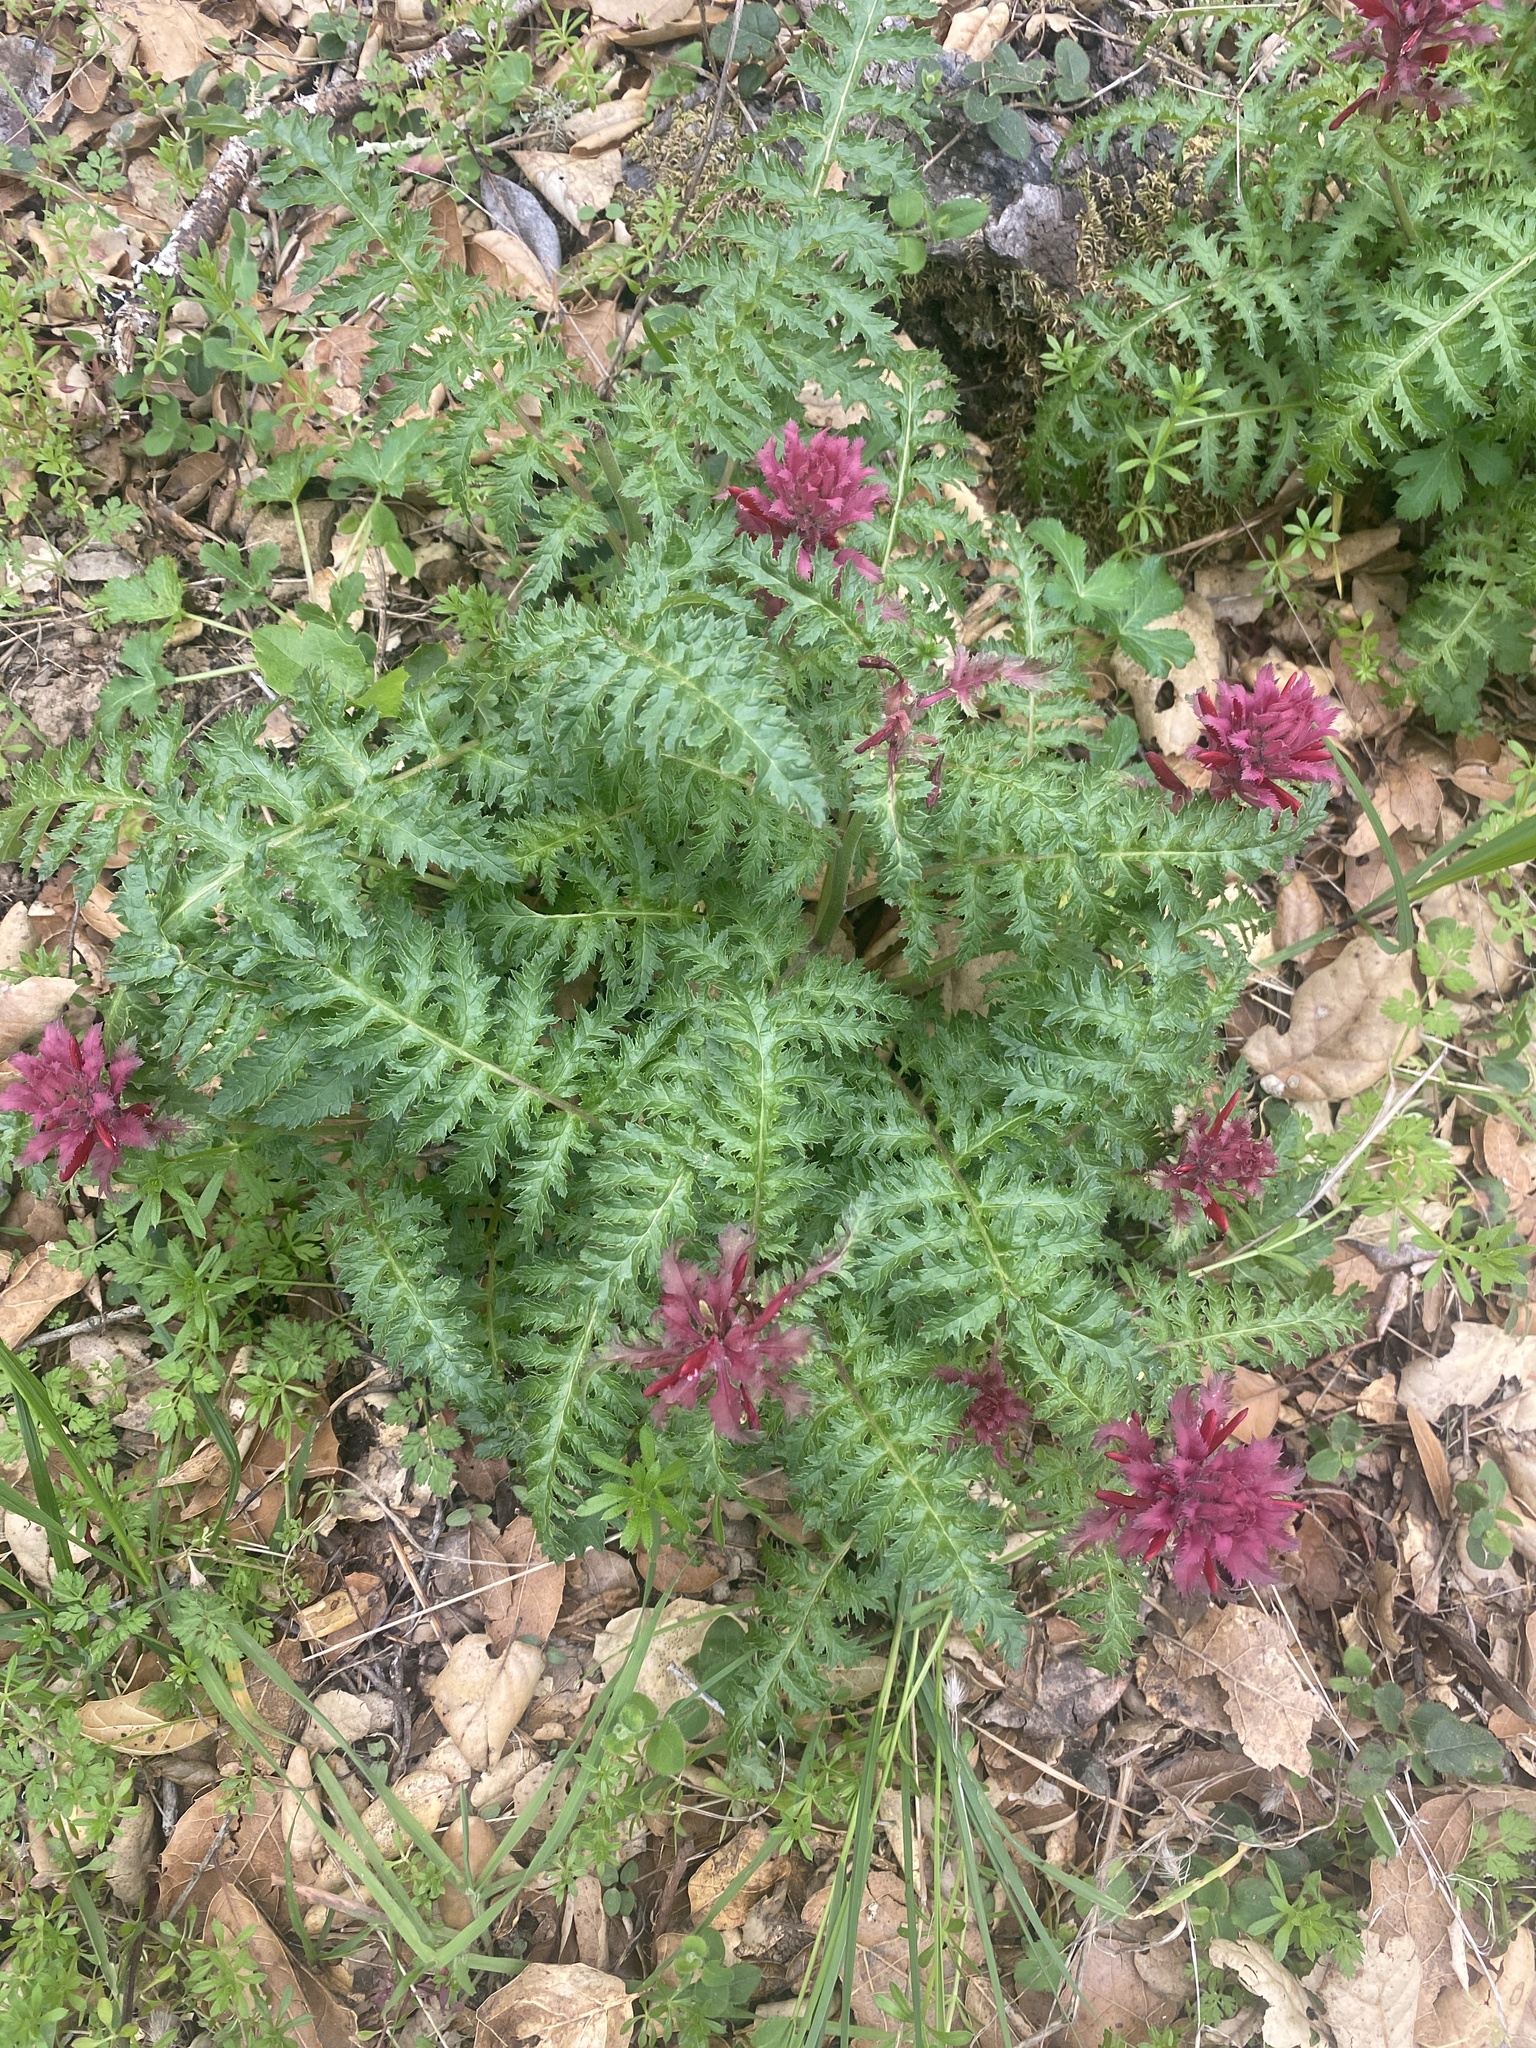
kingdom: Plantae
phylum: Tracheophyta
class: Magnoliopsida
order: Lamiales
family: Orobanchaceae
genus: Pedicularis
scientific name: Pedicularis densiflora
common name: Indian warrior
